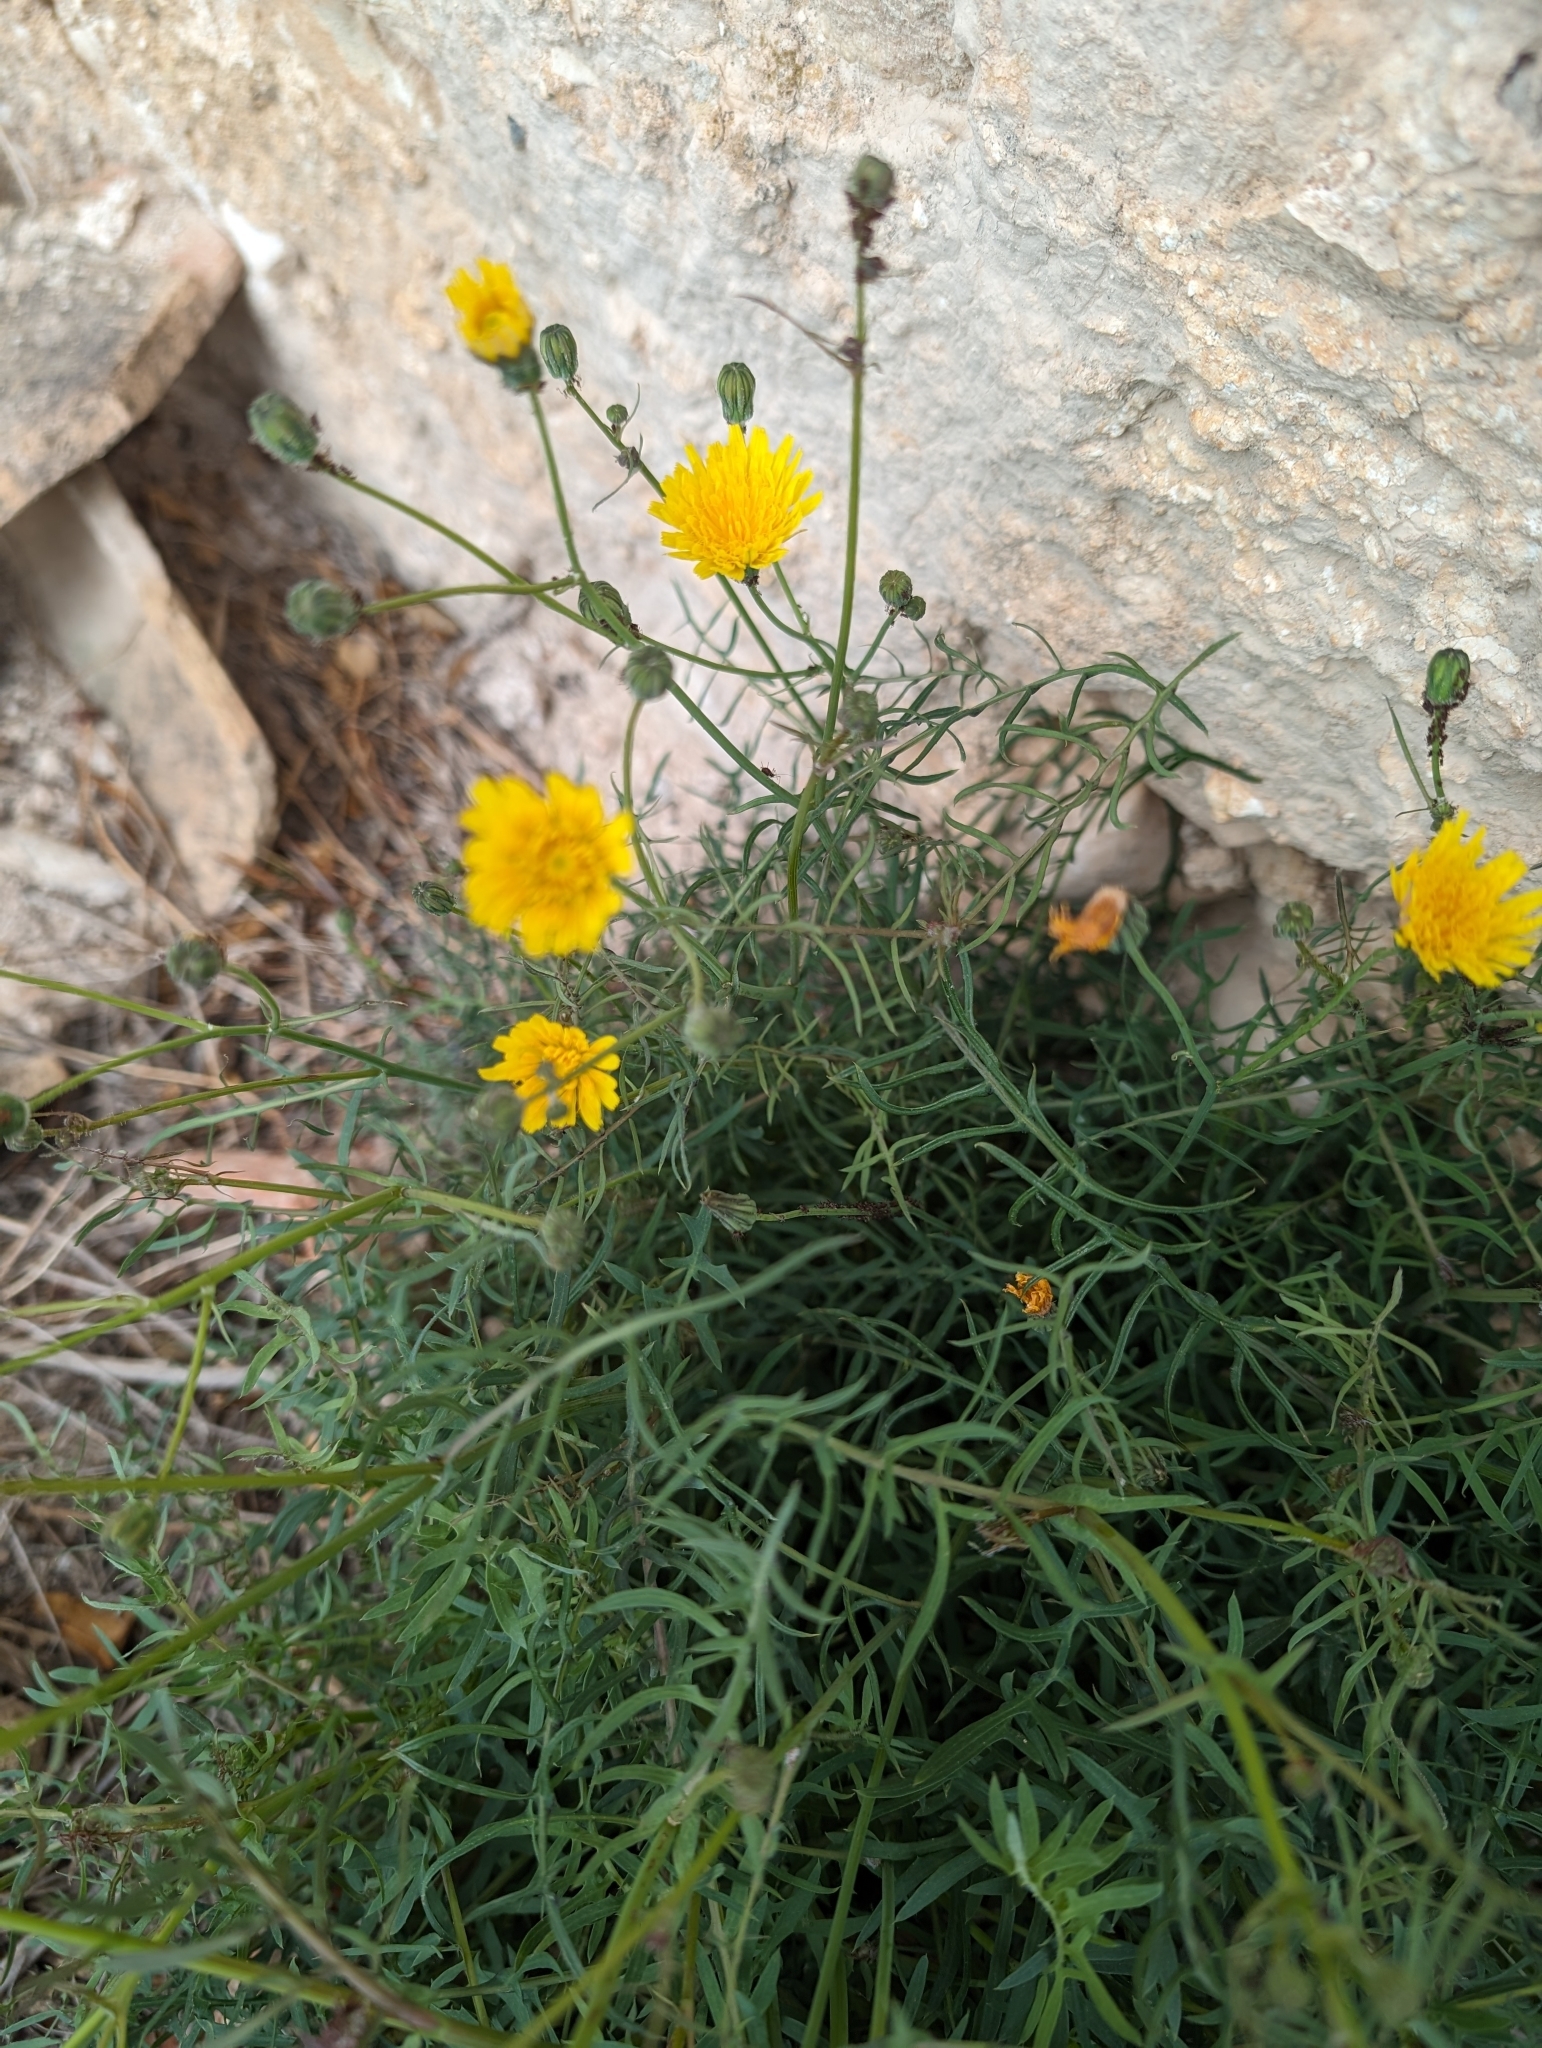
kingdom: Plantae
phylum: Tracheophyta
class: Magnoliopsida
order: Asterales
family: Asteraceae
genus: Sonchus
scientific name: Sonchus tenerrimus
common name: Clammy sowthistle
